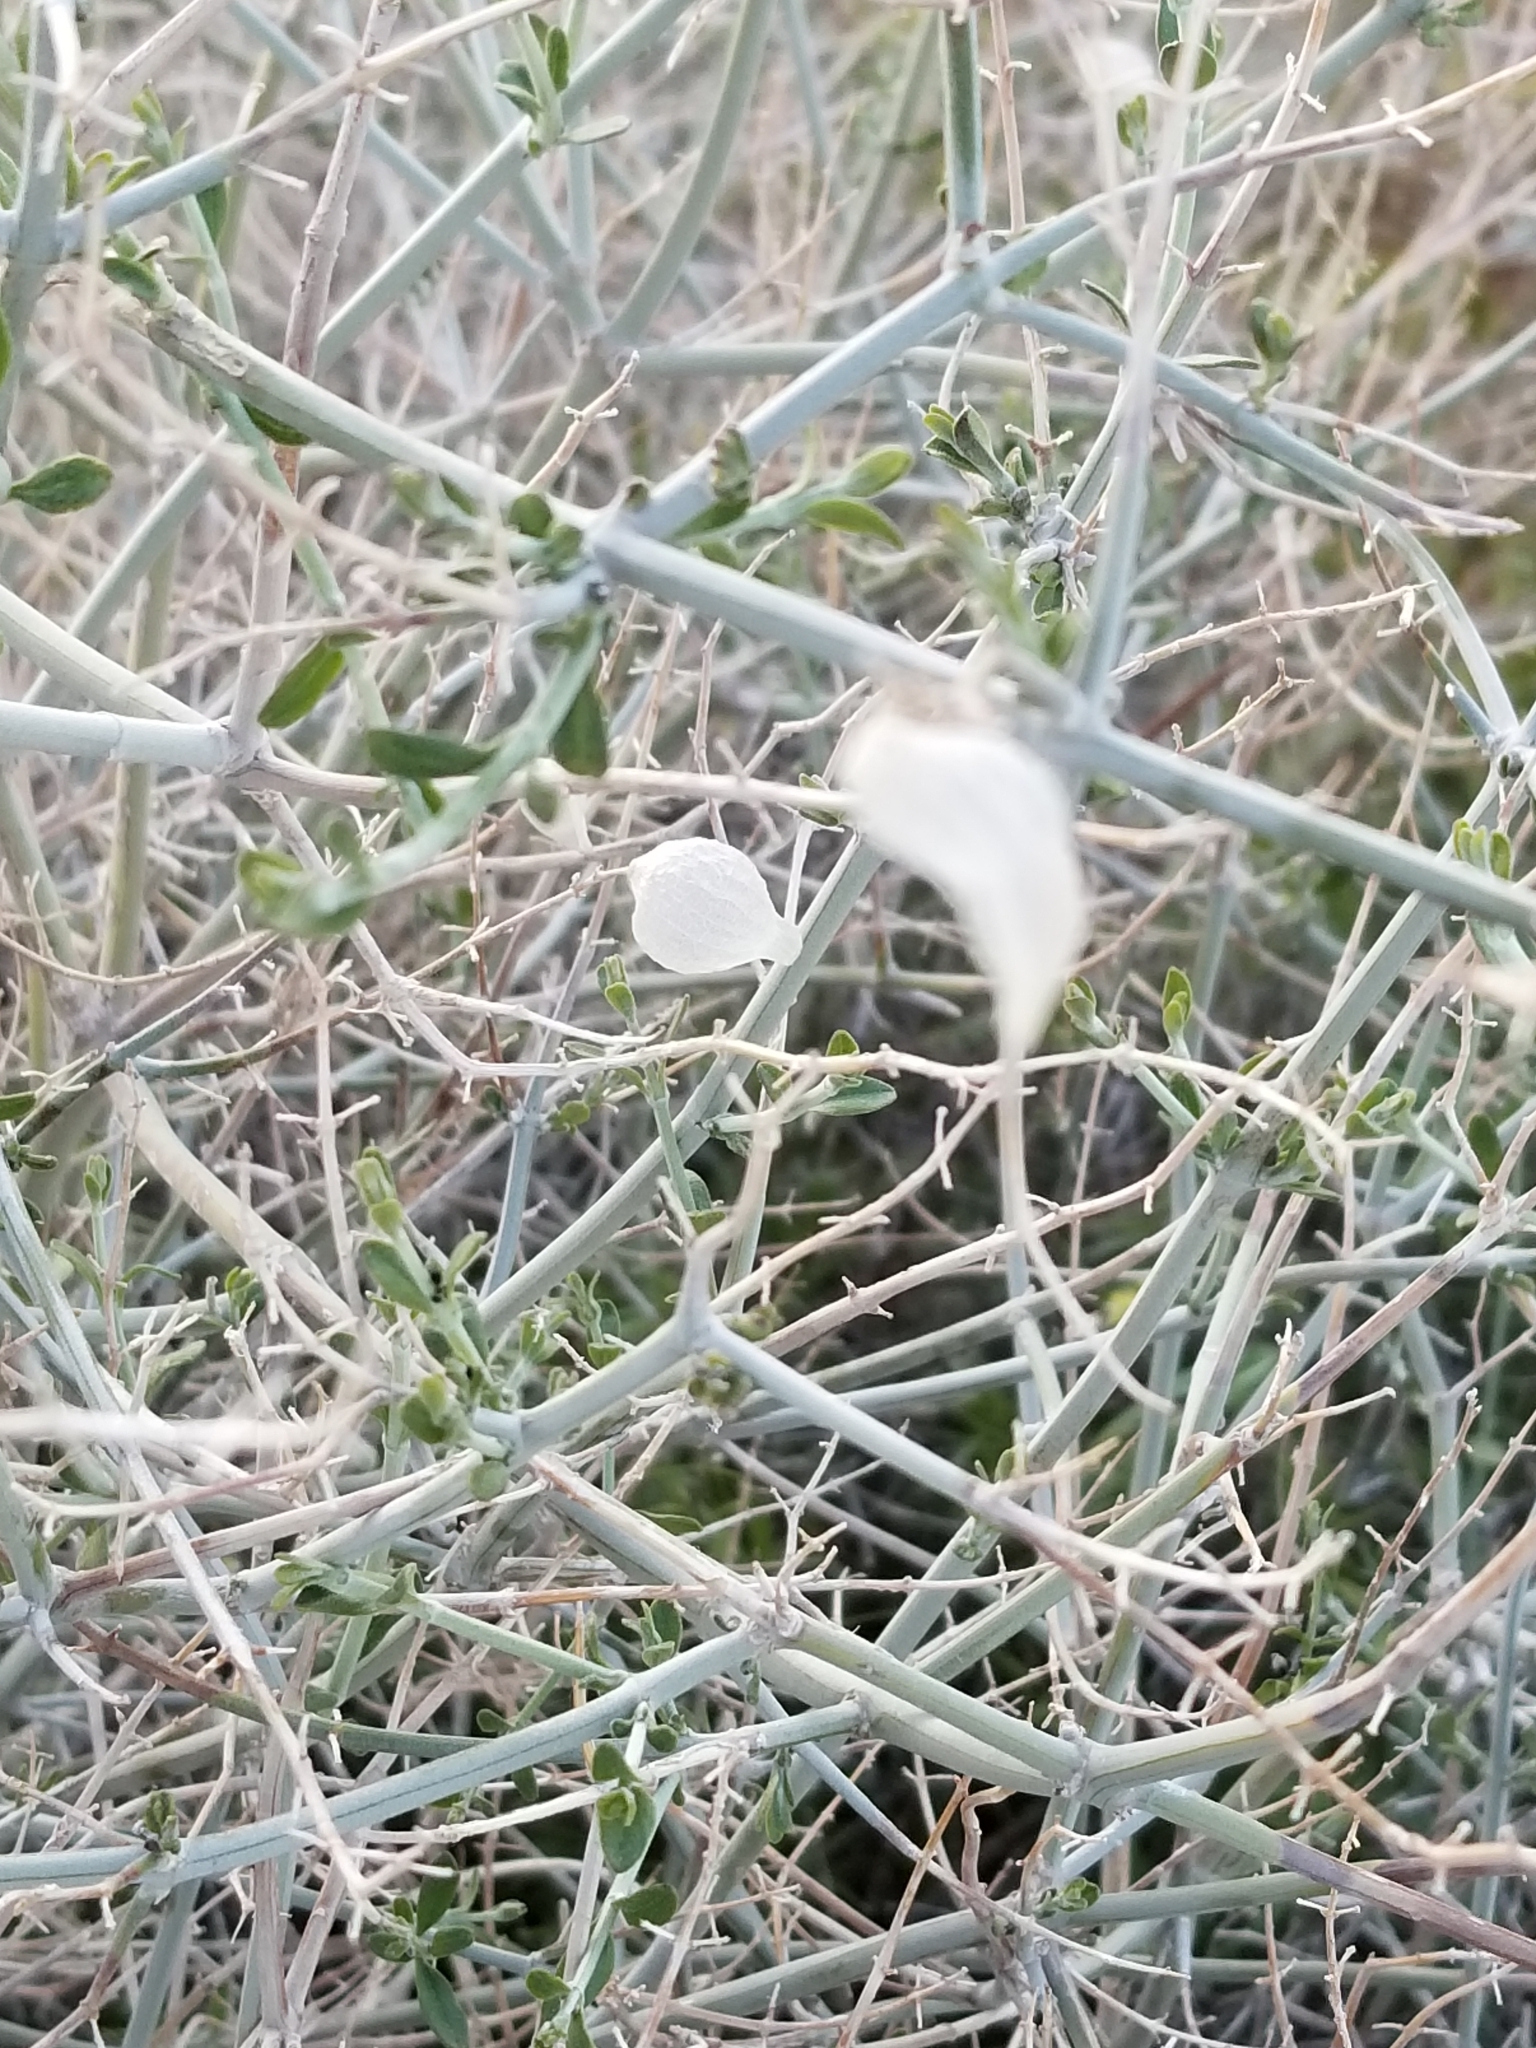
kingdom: Plantae
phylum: Tracheophyta
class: Magnoliopsida
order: Lamiales
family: Lamiaceae
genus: Scutellaria
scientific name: Scutellaria mexicana
